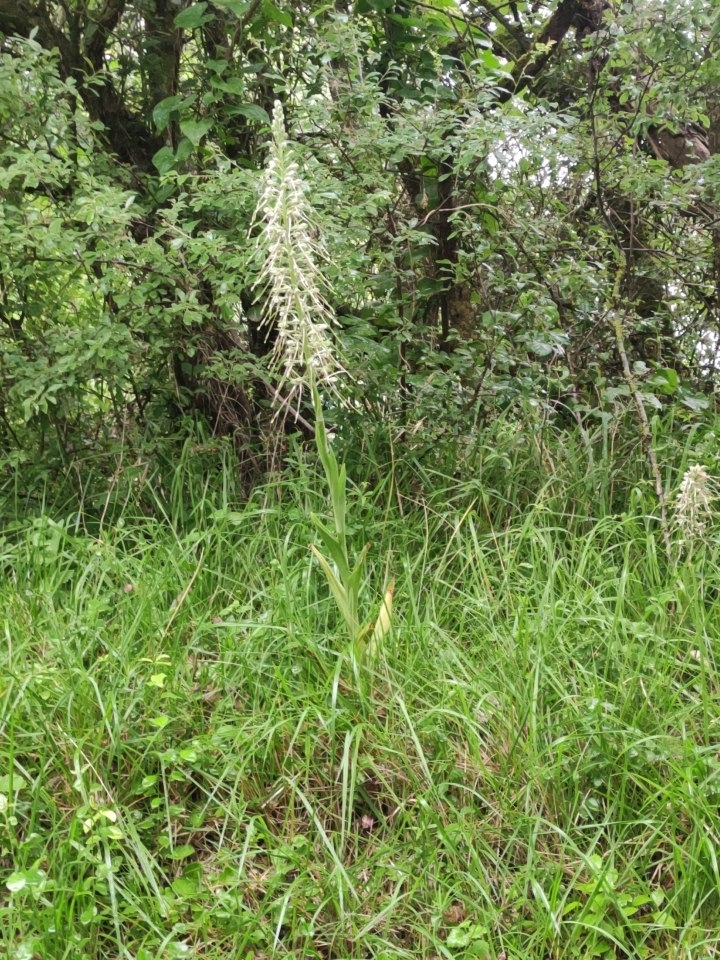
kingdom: Plantae
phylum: Tracheophyta
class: Liliopsida
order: Asparagales
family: Orchidaceae
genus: Himantoglossum
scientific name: Himantoglossum hircinum
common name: Lizard orchid
